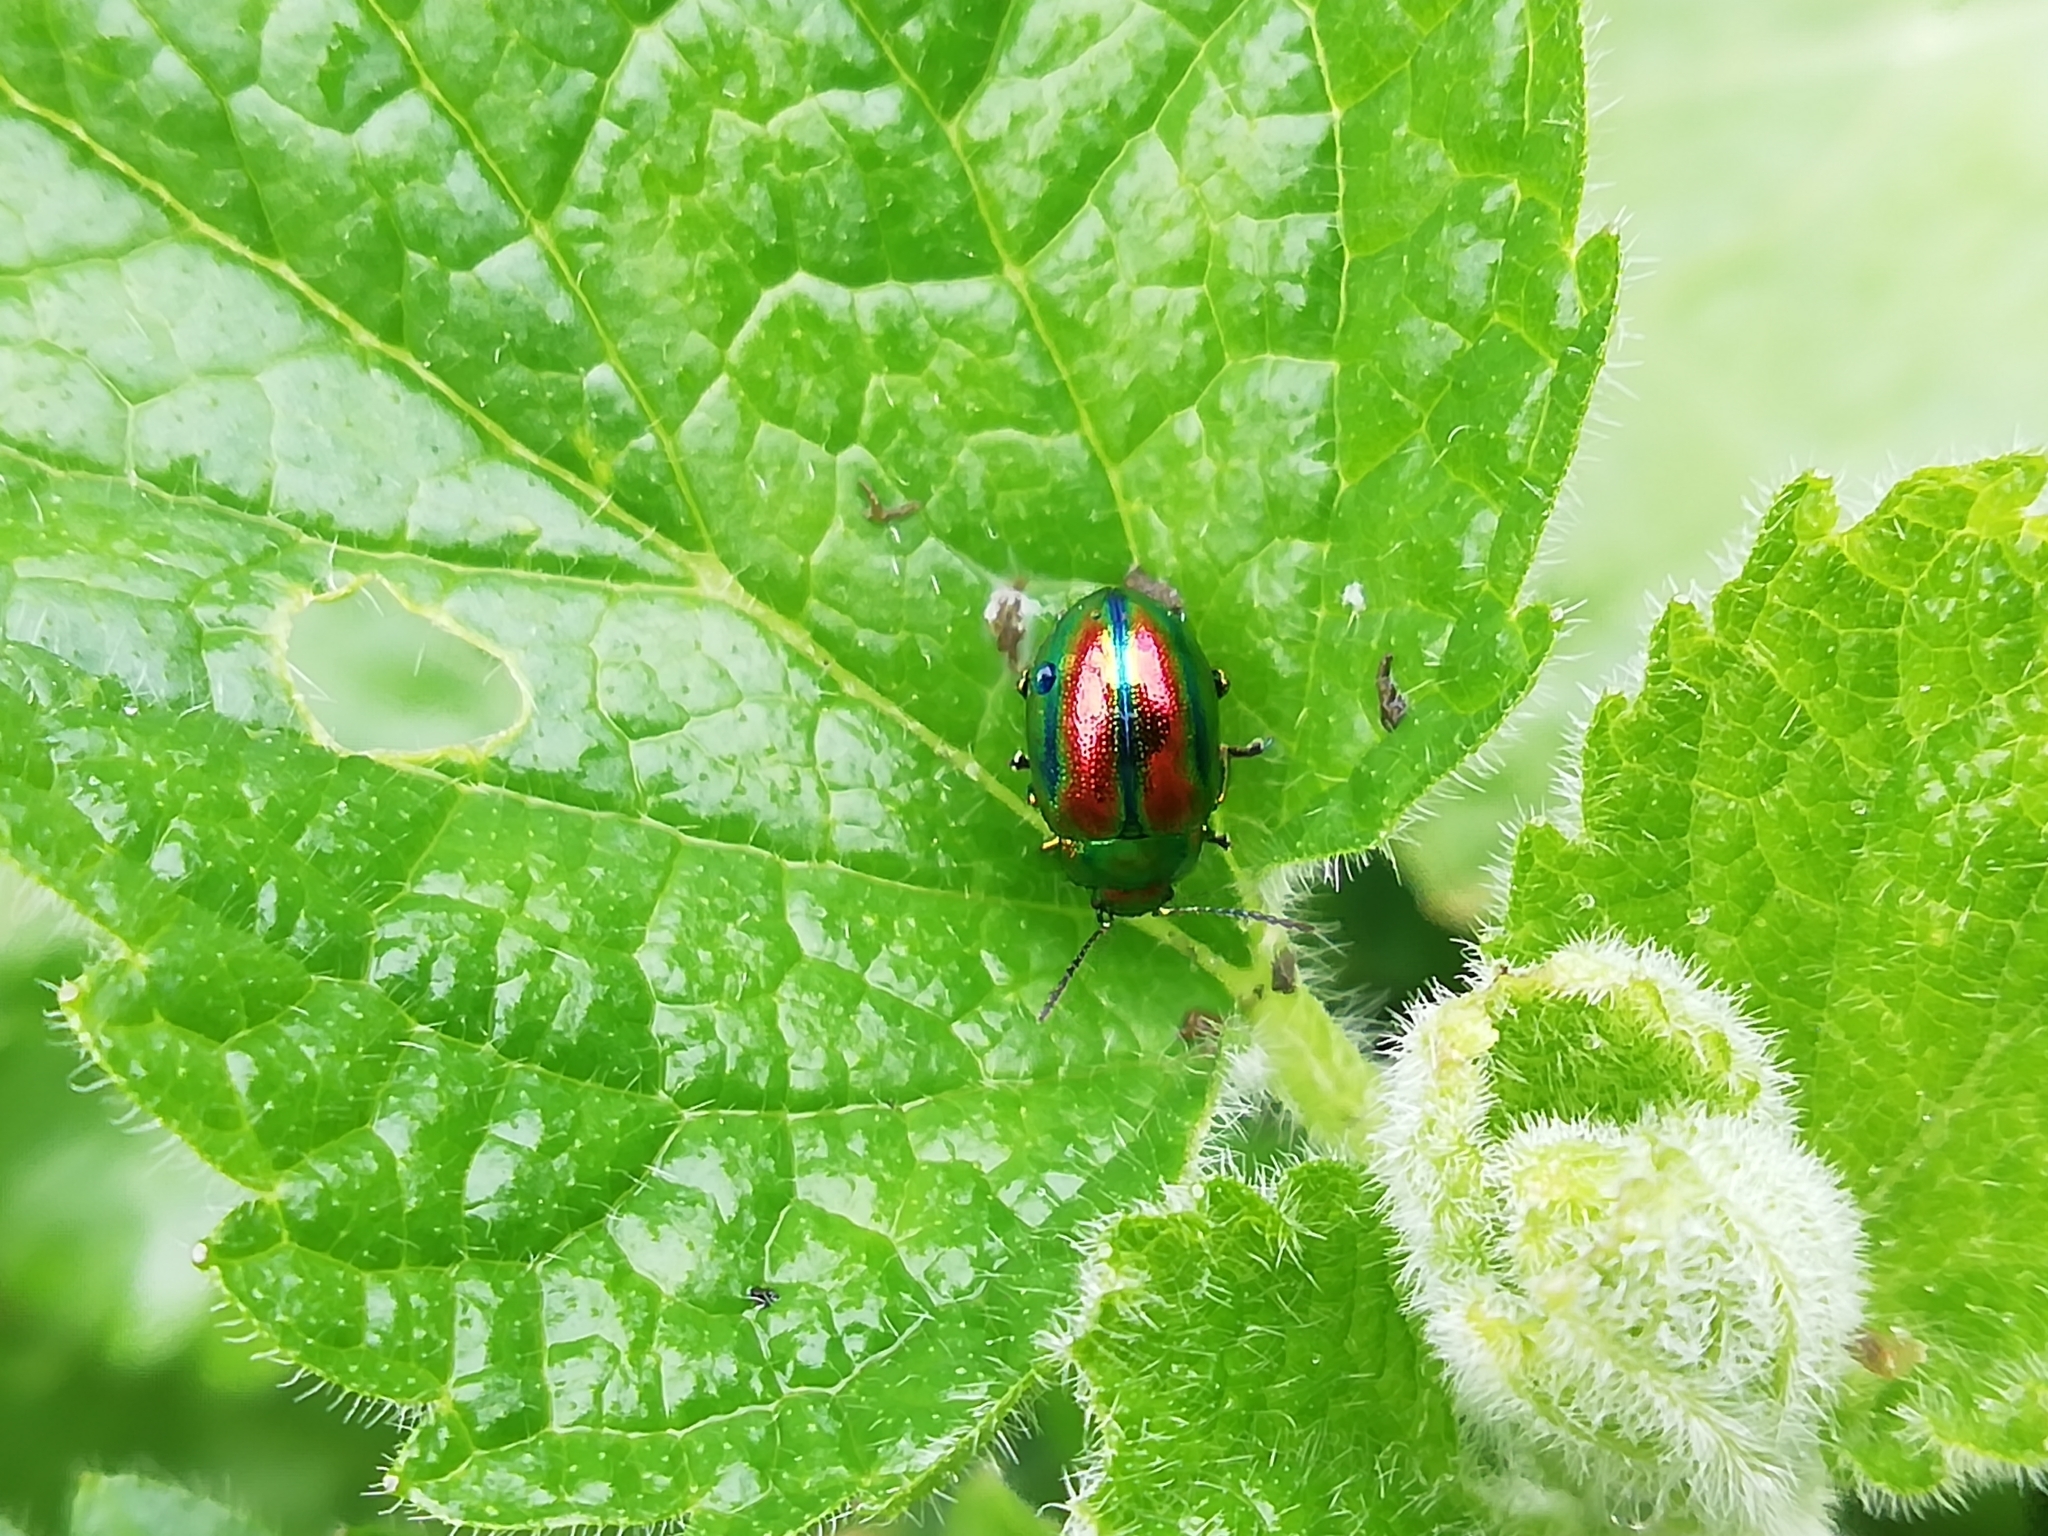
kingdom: Animalia
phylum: Arthropoda
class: Insecta
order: Coleoptera
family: Chrysomelidae
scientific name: Chrysomelidae
